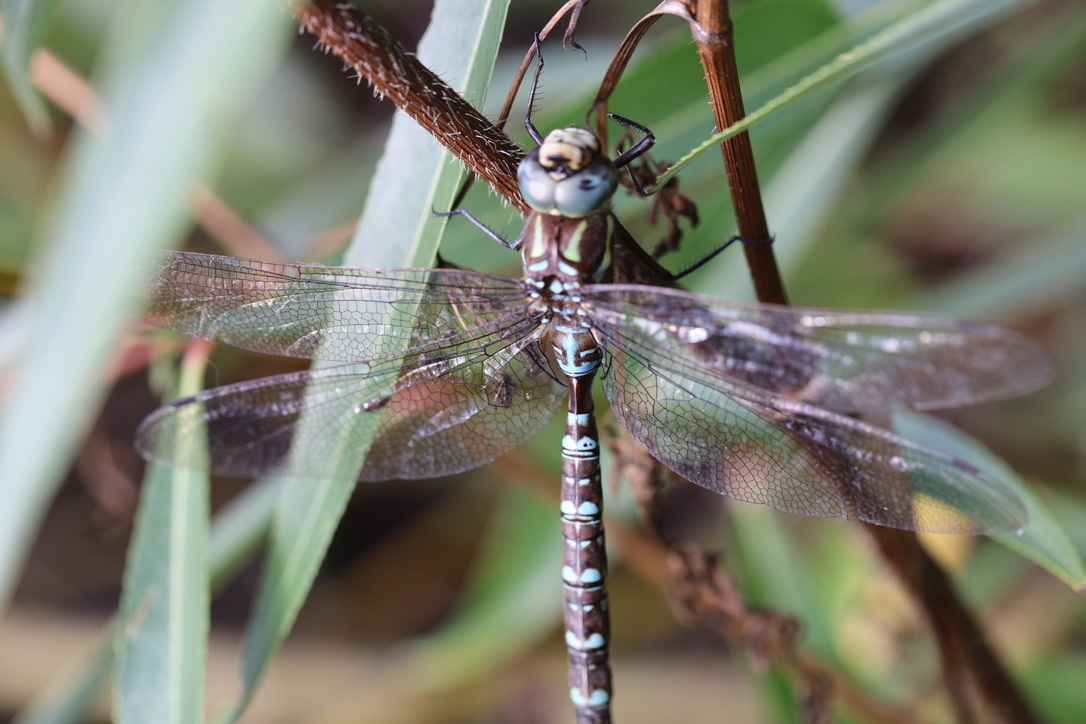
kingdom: Animalia
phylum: Arthropoda
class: Insecta
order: Odonata
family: Aeshnidae
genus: Aeshna
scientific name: Aeshna umbrosa
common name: Shadow darner
